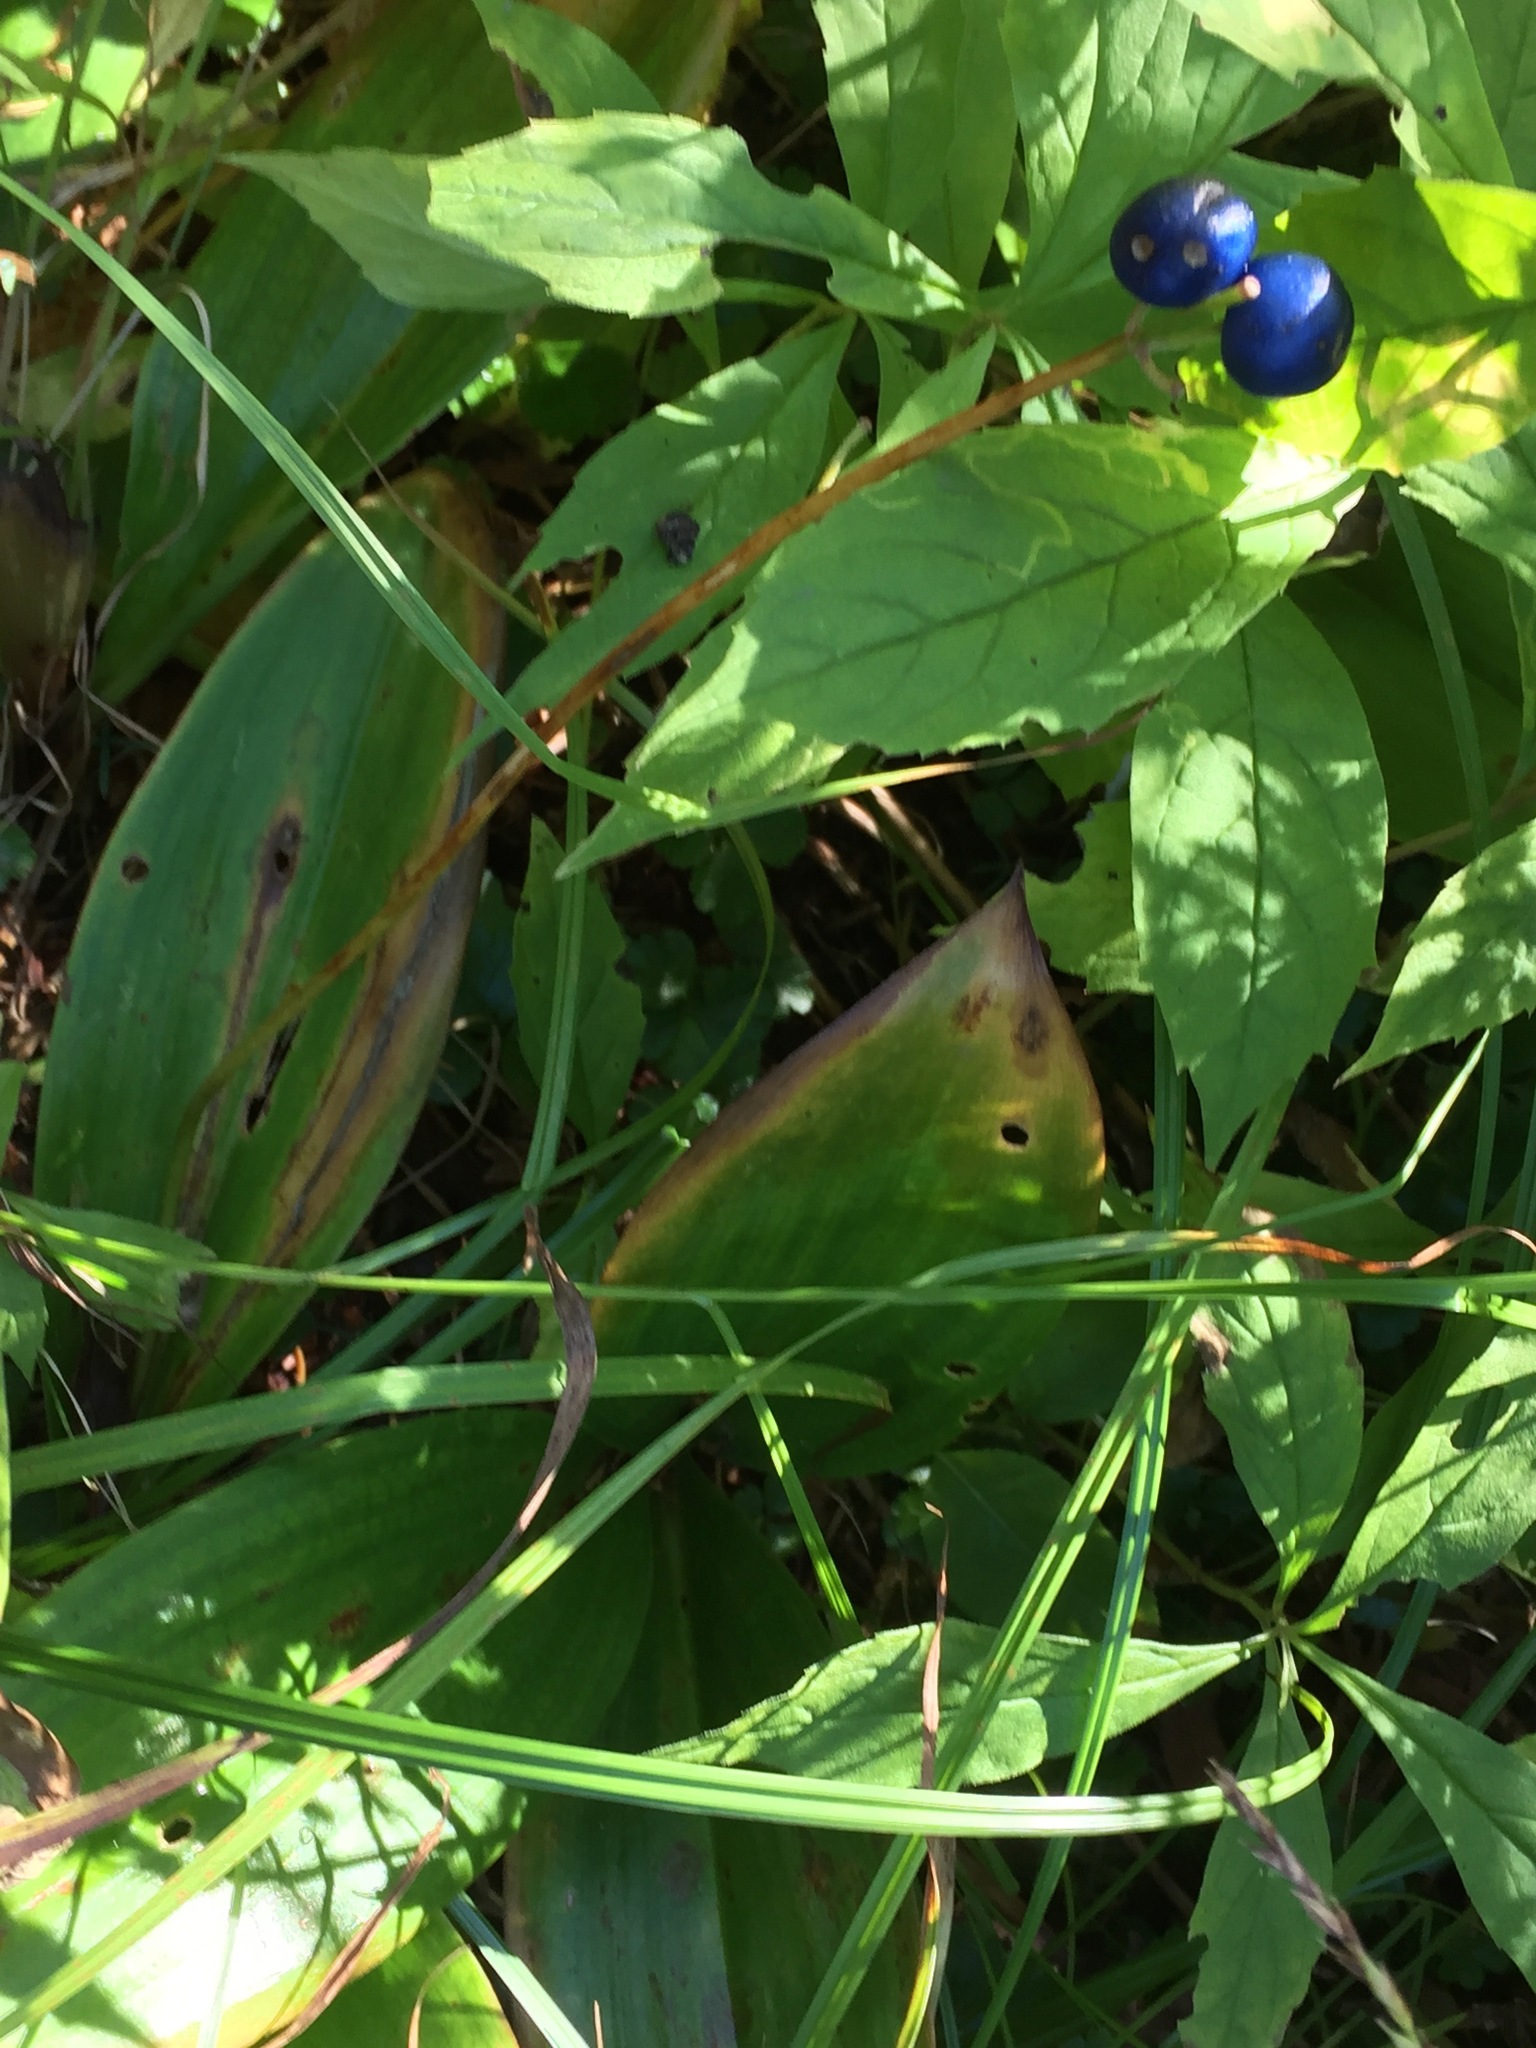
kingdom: Plantae
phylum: Tracheophyta
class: Liliopsida
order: Liliales
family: Liliaceae
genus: Clintonia
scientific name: Clintonia borealis
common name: Yellow clintonia
